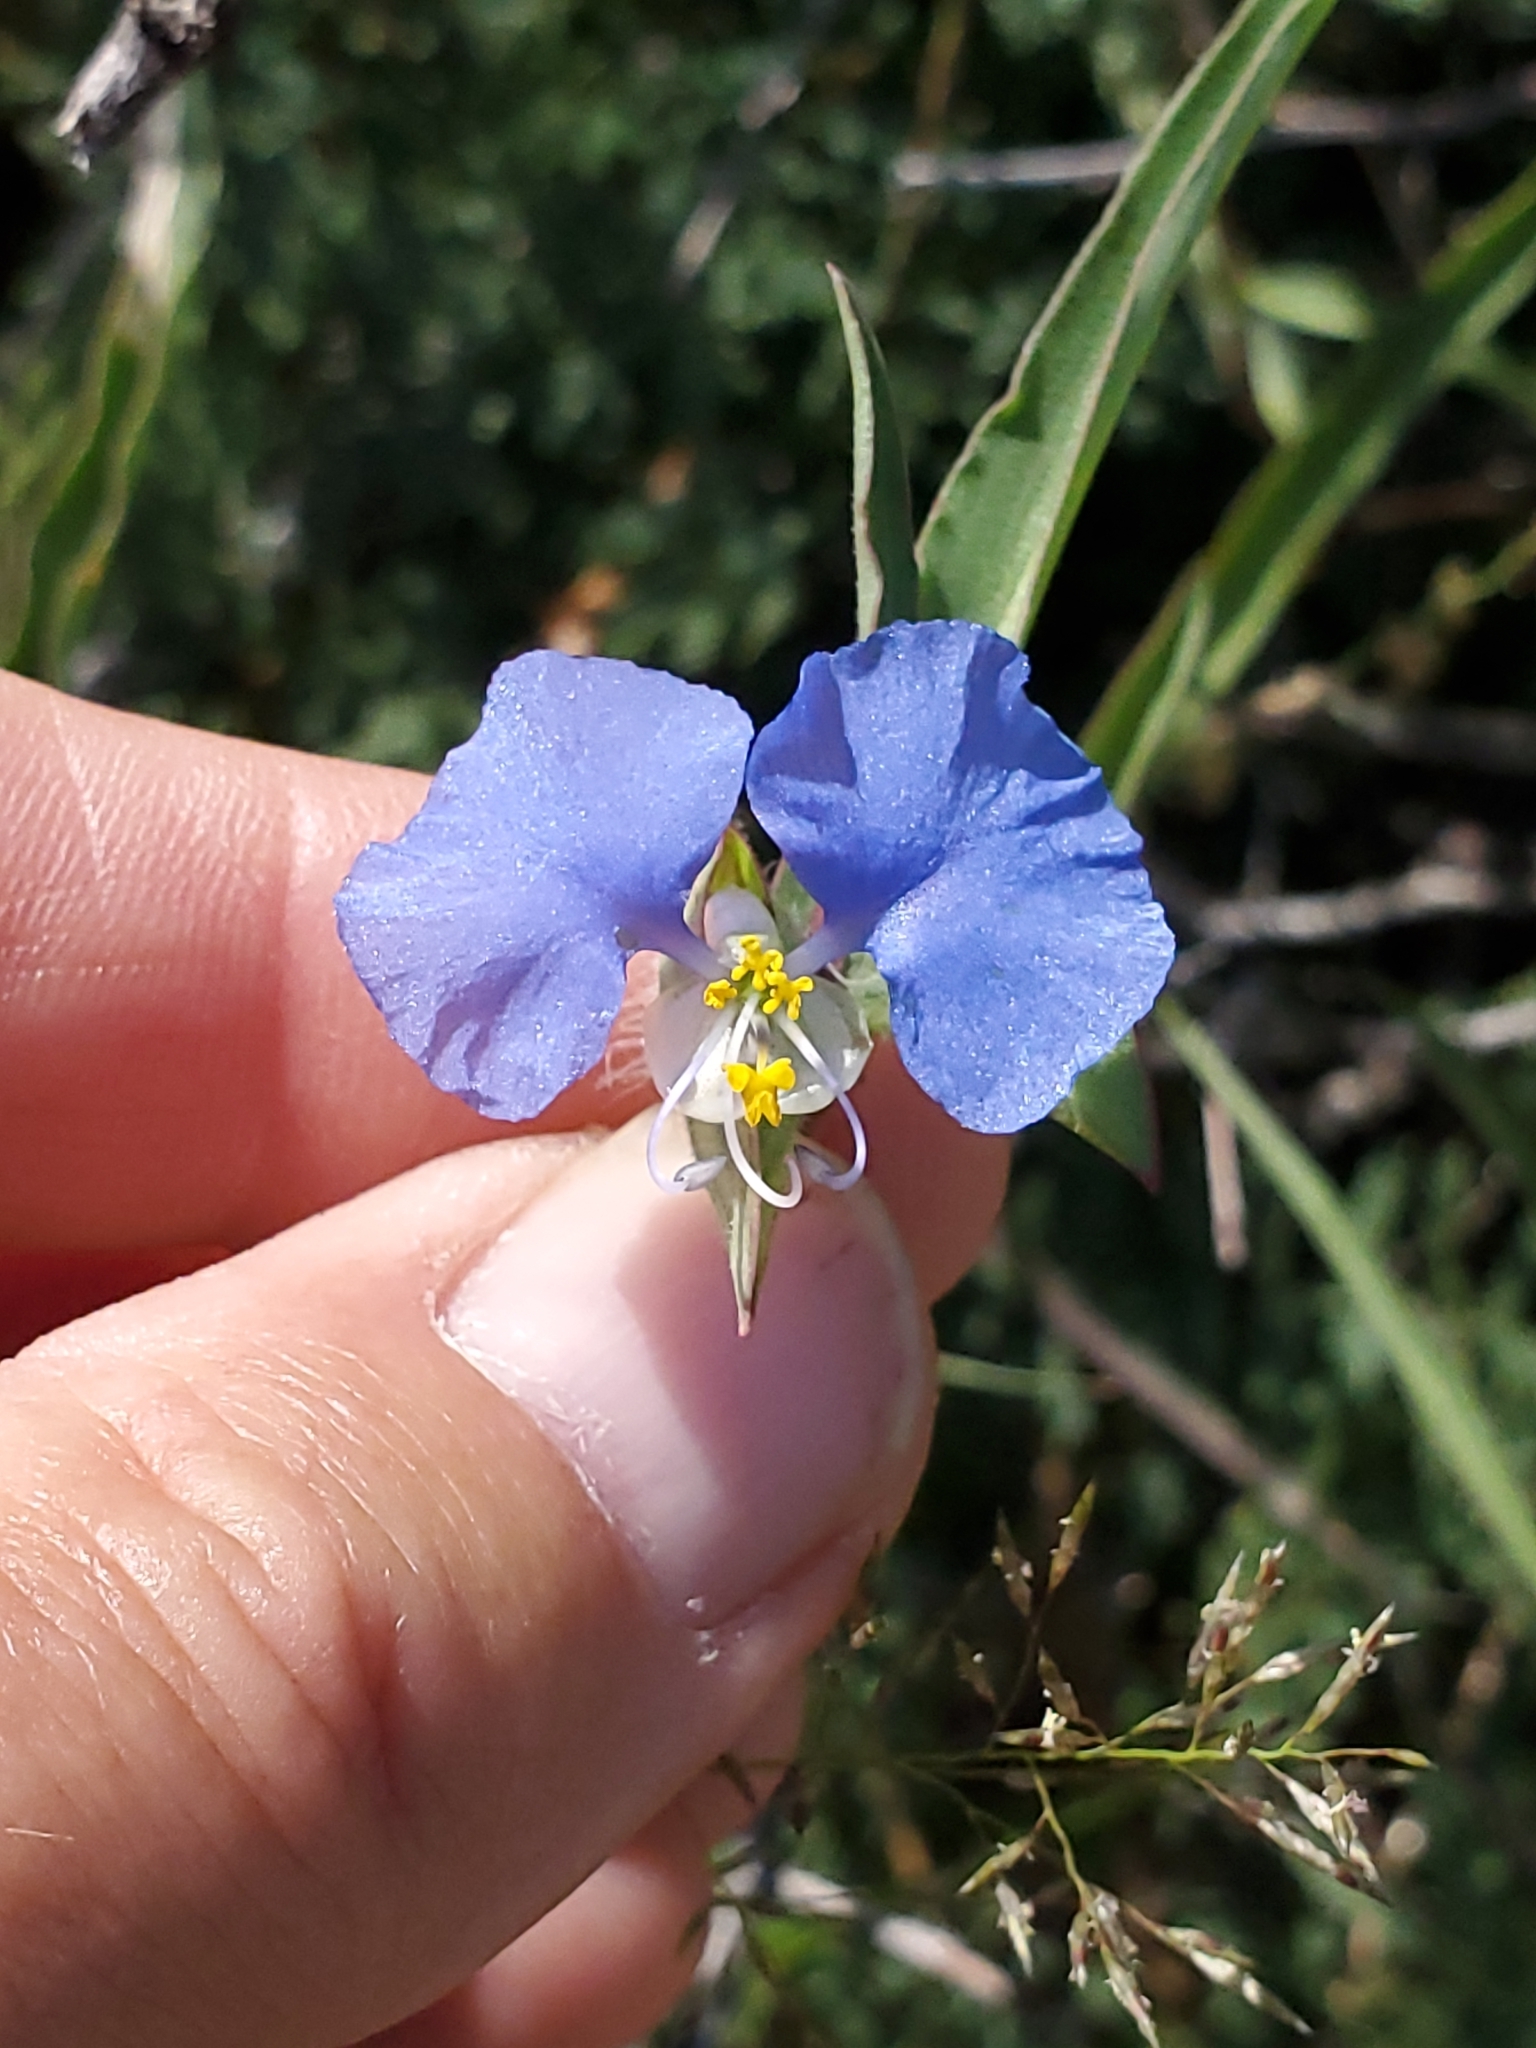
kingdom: Plantae
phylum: Tracheophyta
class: Liliopsida
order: Commelinales
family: Commelinaceae
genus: Commelina
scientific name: Commelina erecta
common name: Blousel blommetjie
